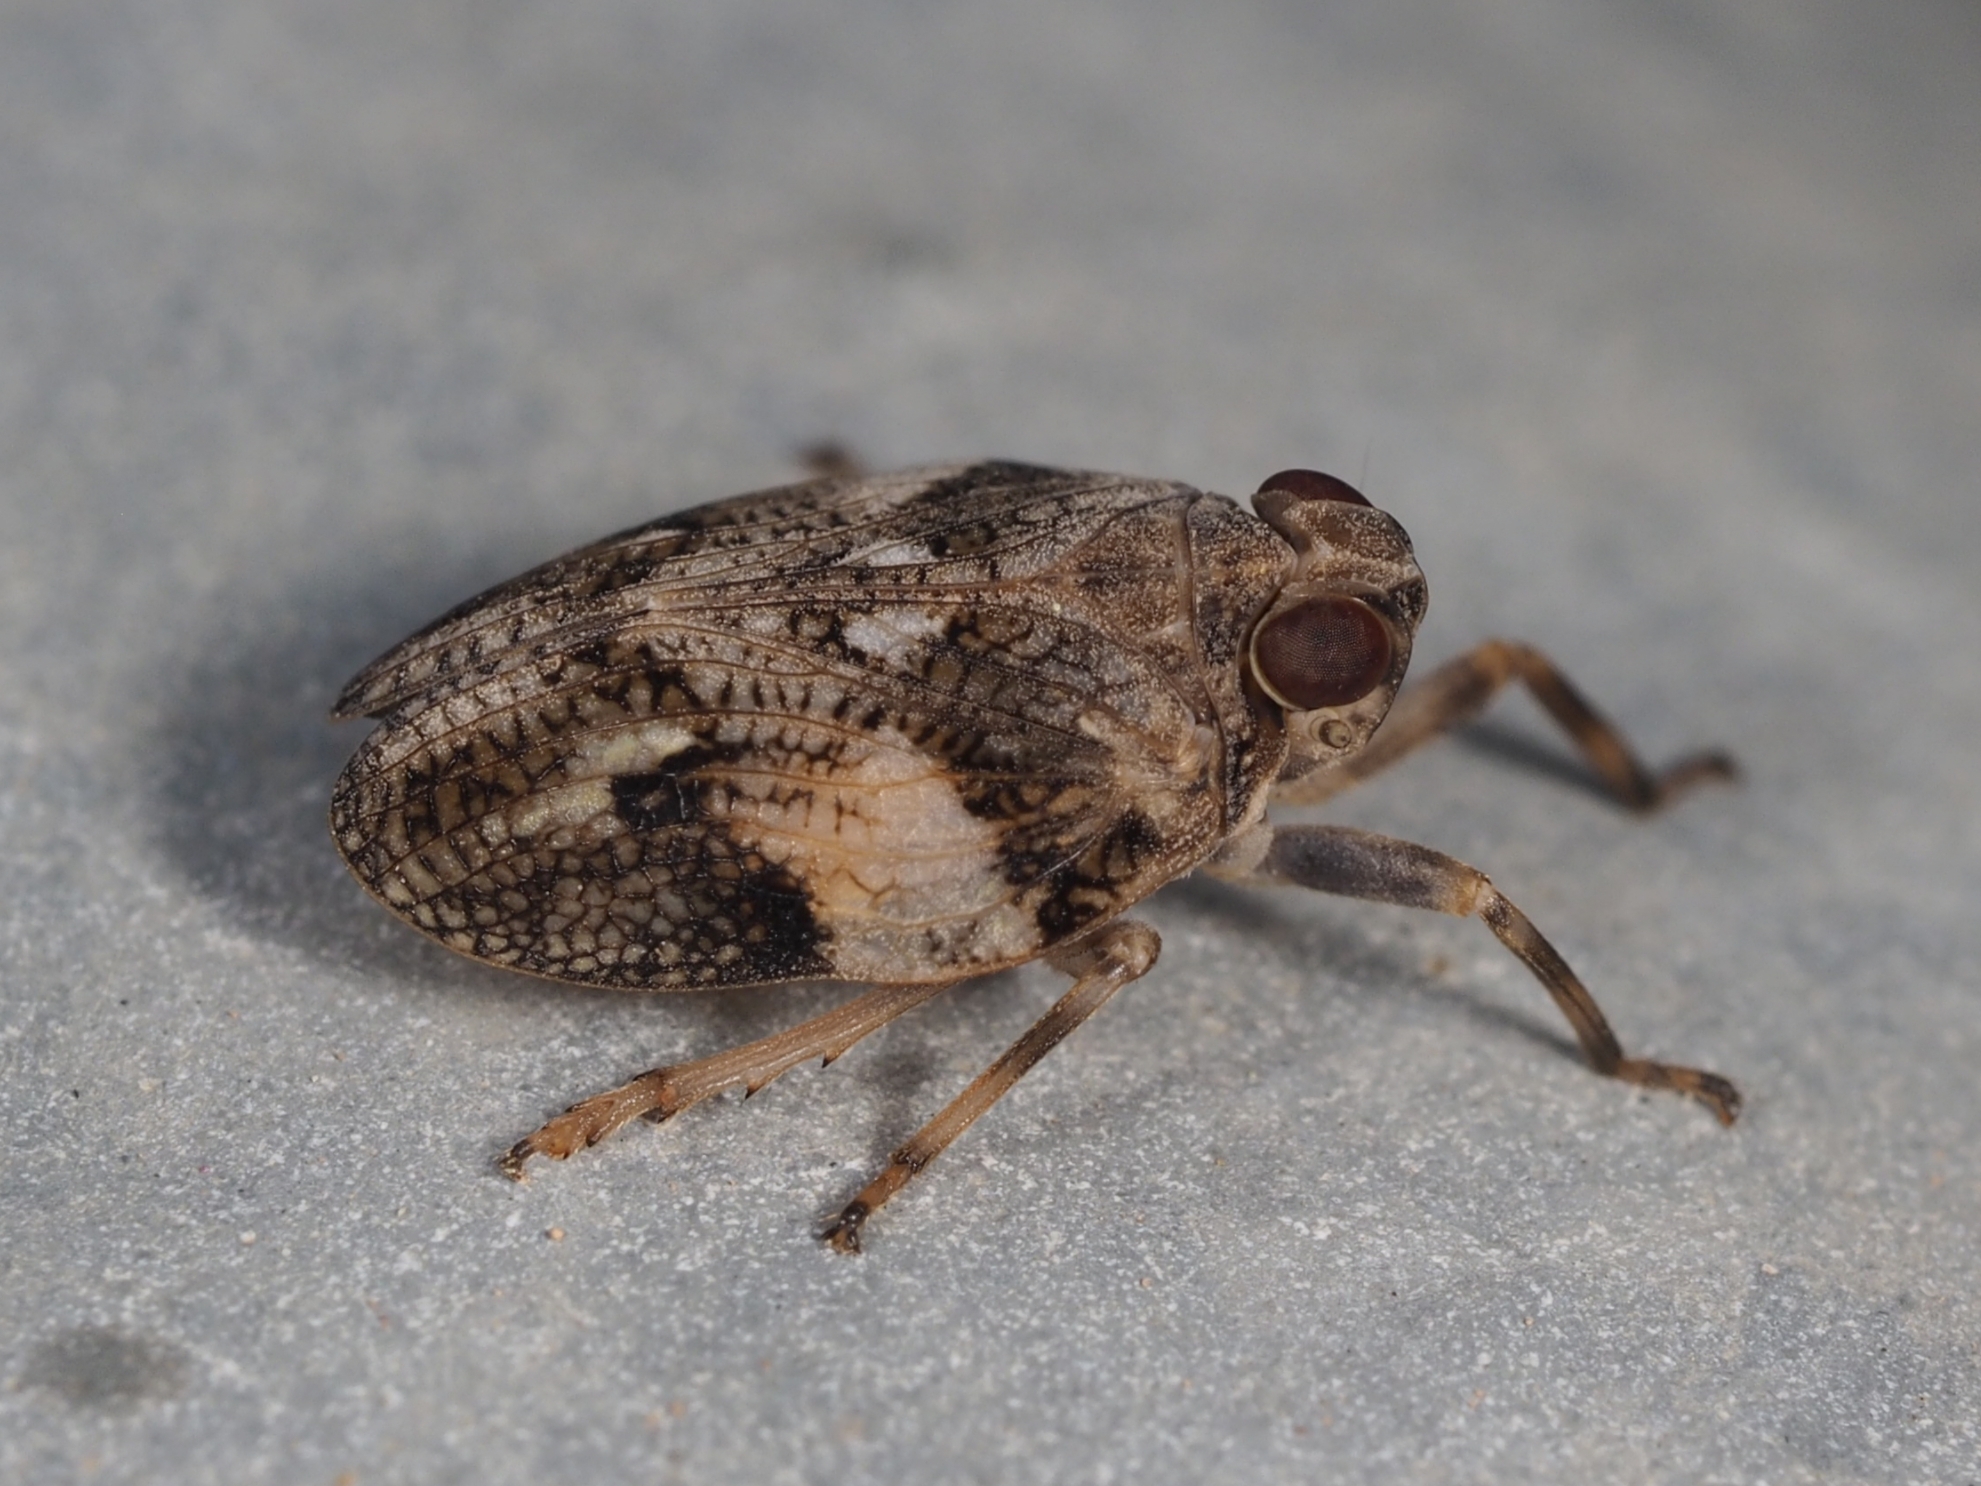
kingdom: Animalia
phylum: Arthropoda
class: Insecta
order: Hemiptera
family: Issidae
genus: Issus
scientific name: Issus coleoptratus
